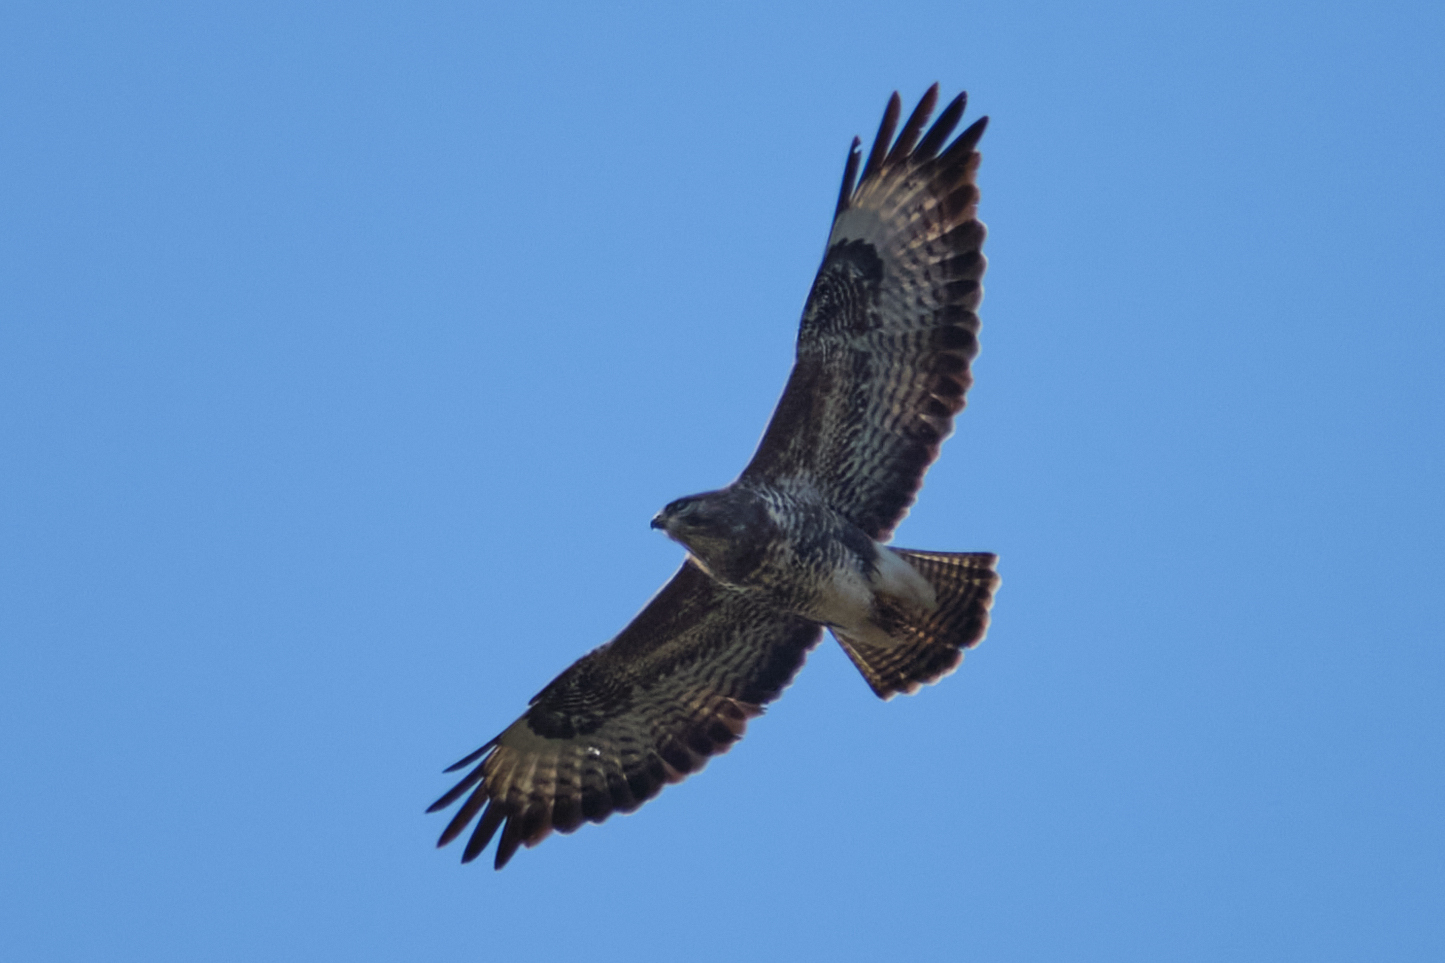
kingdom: Animalia
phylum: Chordata
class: Aves
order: Accipitriformes
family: Accipitridae
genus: Buteo
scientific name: Buteo buteo
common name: Common buzzard
